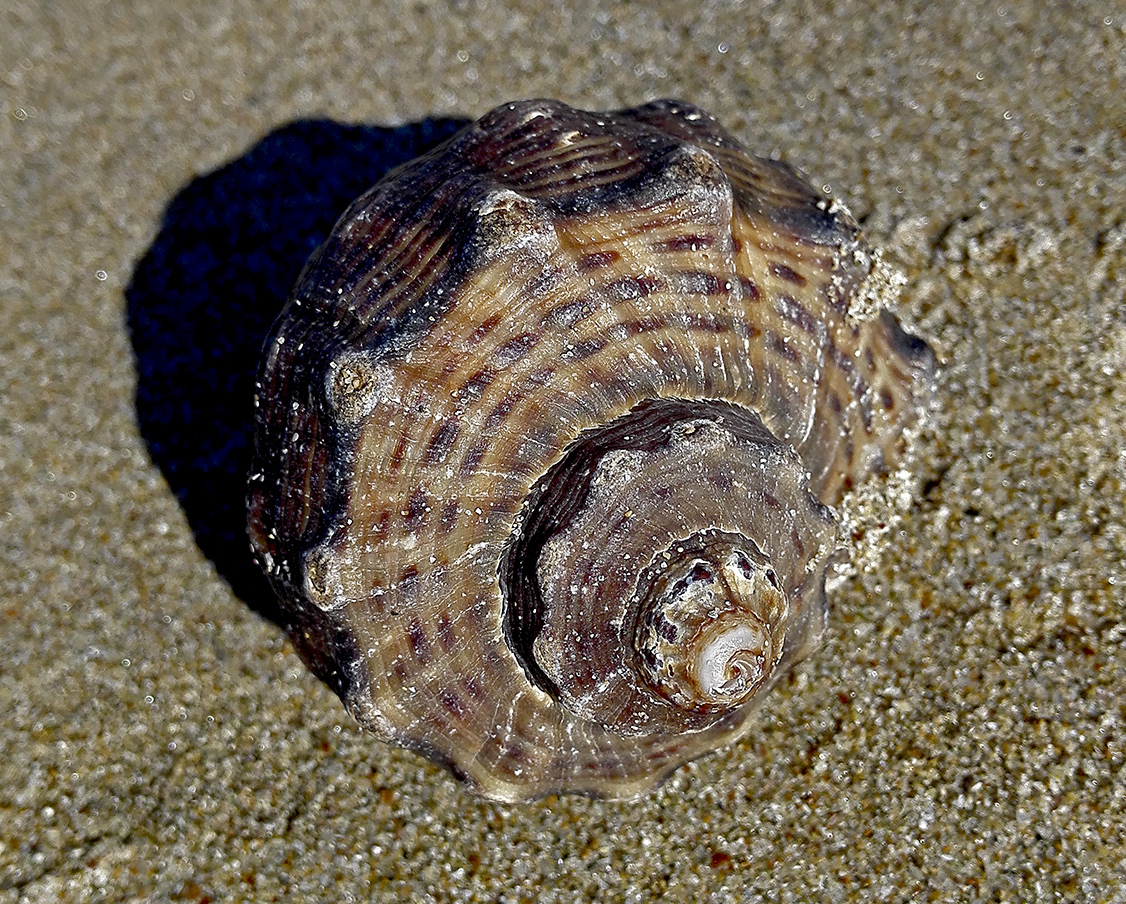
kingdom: Animalia
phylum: Mollusca
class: Gastropoda
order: Neogastropoda
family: Muricidae
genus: Rapana
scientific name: Rapana venosa
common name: Veined rapa whelk
